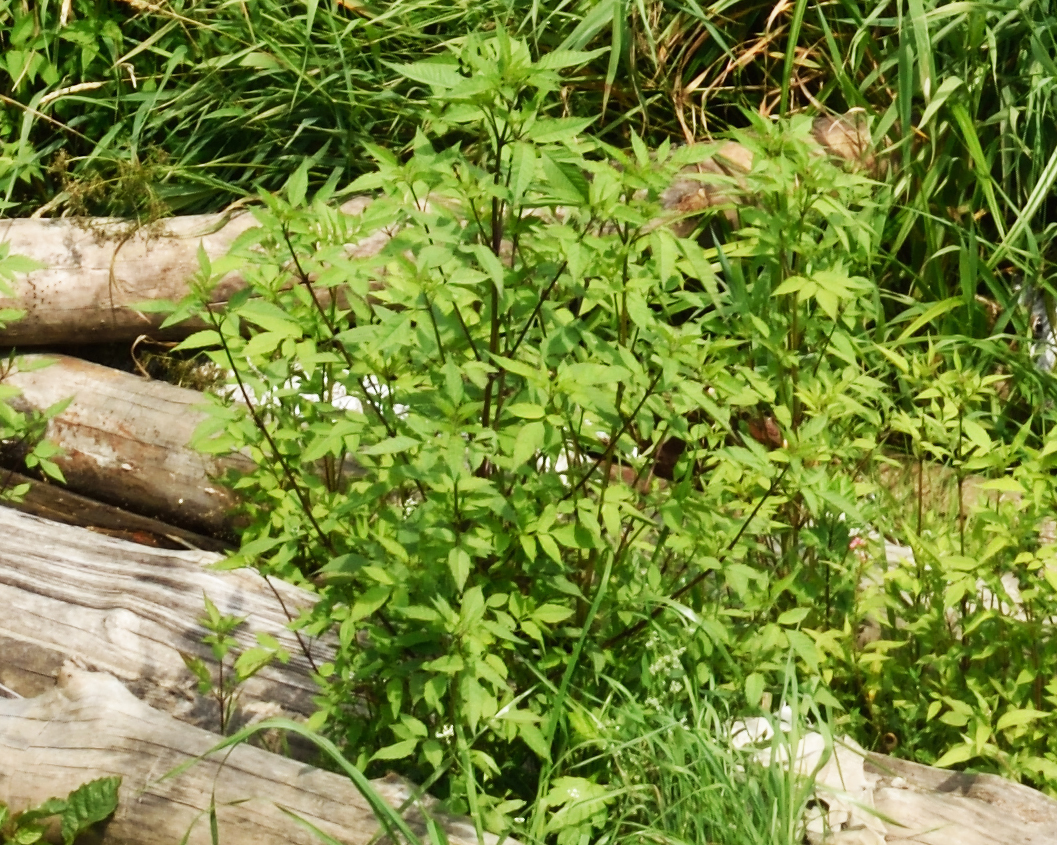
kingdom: Plantae
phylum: Tracheophyta
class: Magnoliopsida
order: Asterales
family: Asteraceae
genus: Bidens
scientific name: Bidens frondosa
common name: Beggarticks
